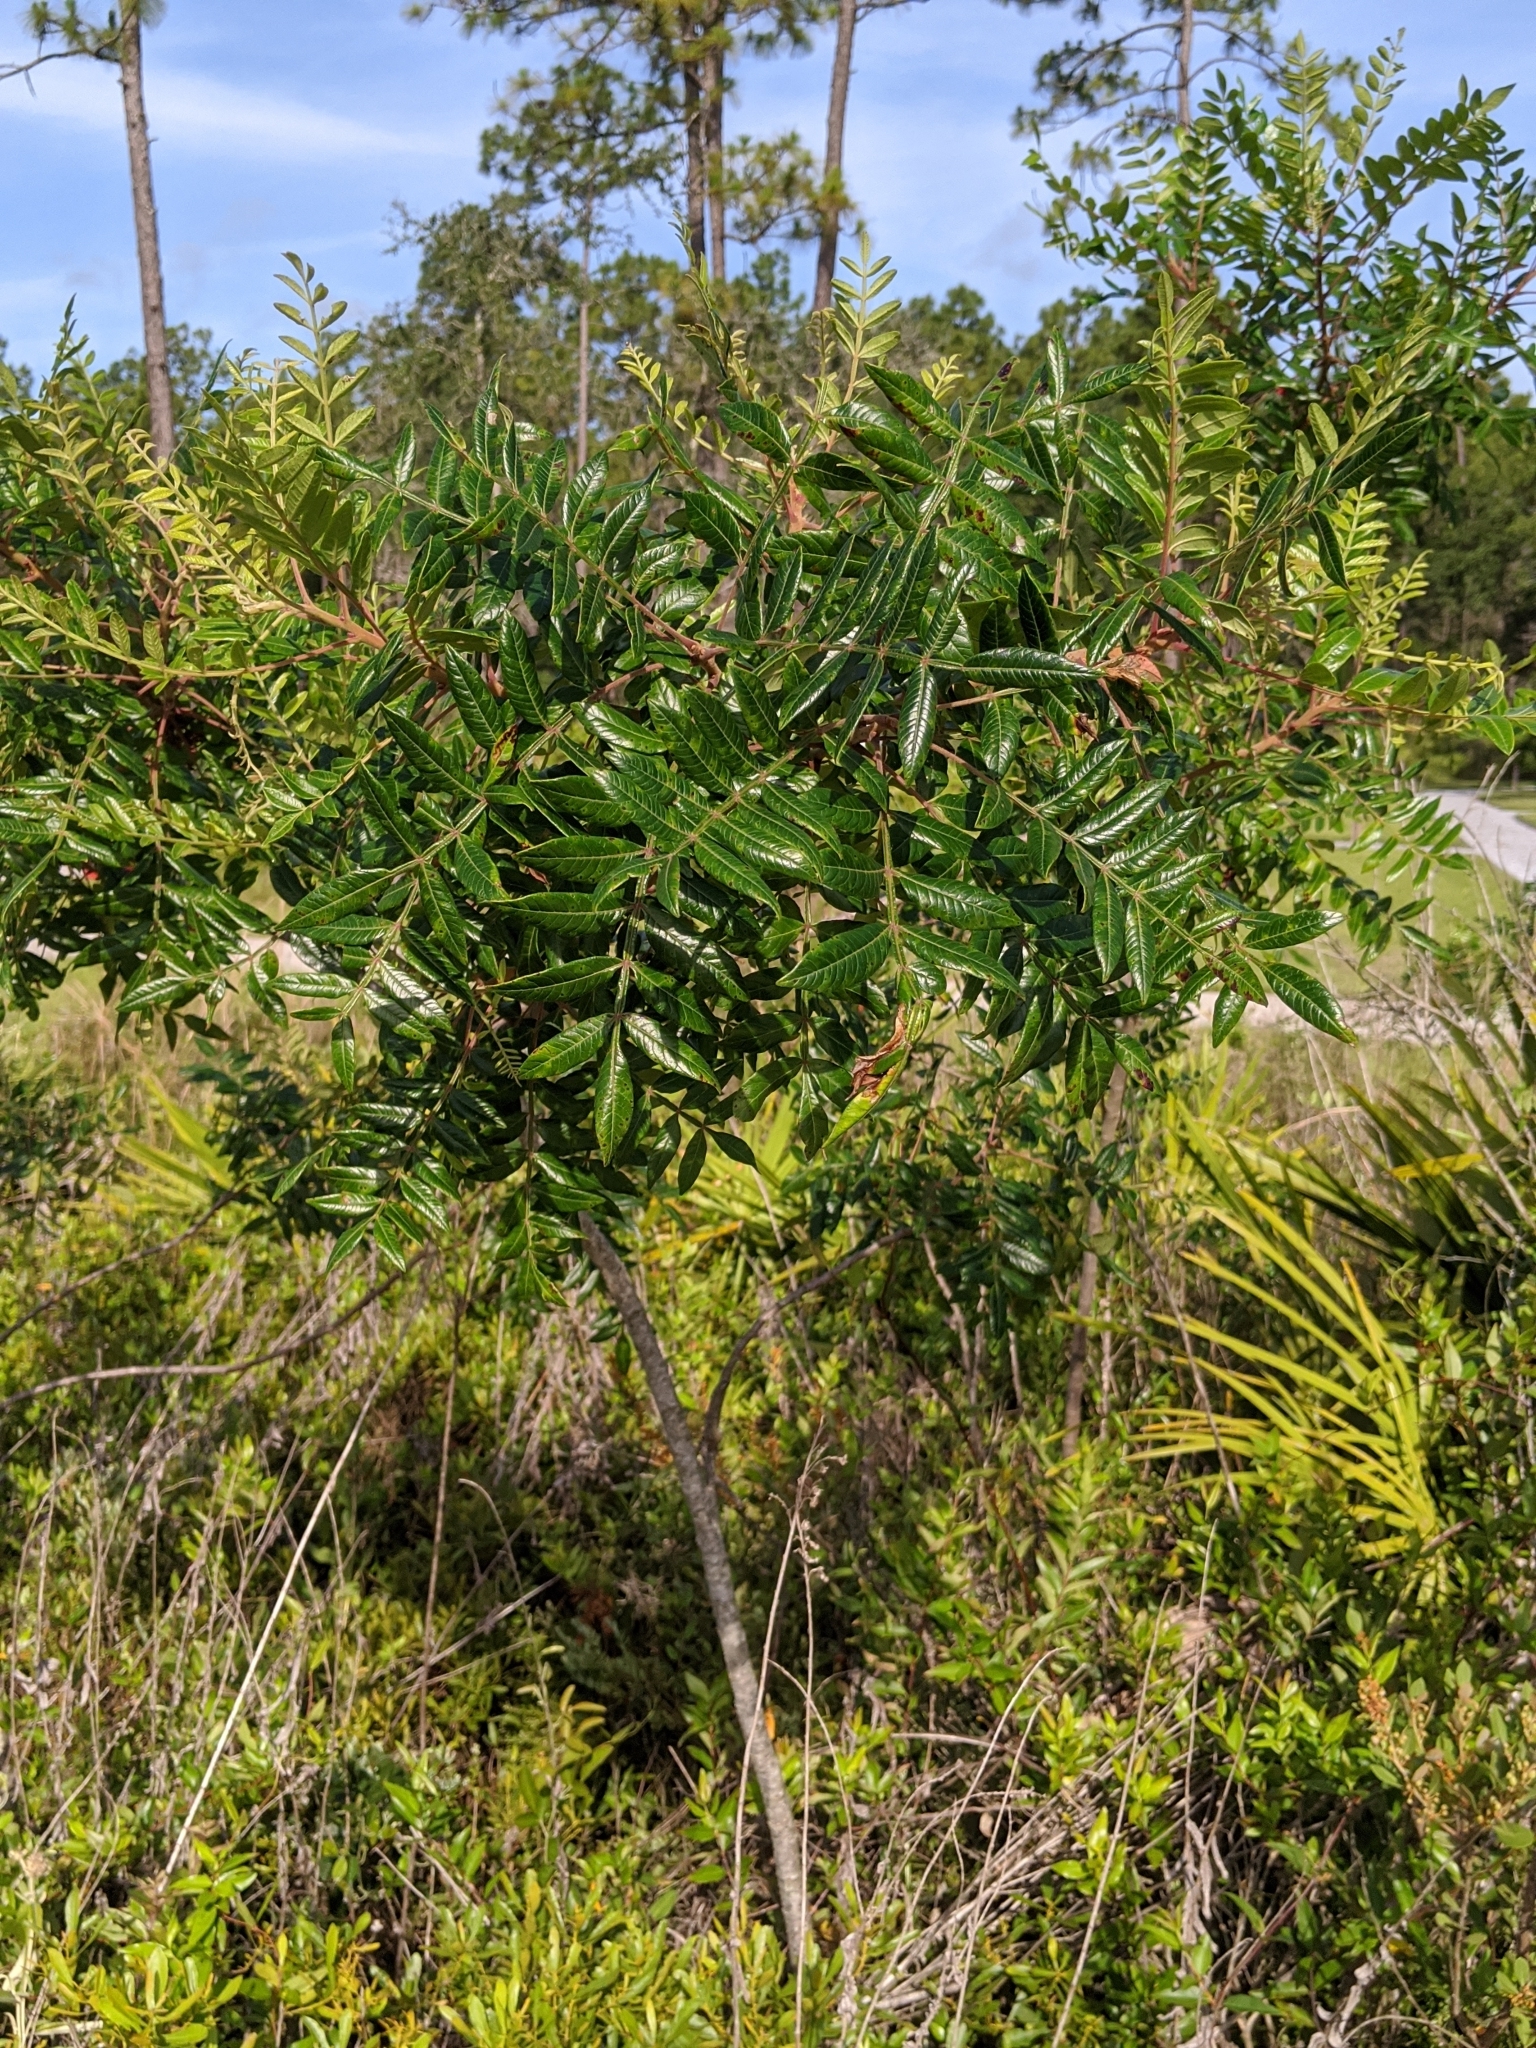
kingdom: Plantae
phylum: Tracheophyta
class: Magnoliopsida
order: Sapindales
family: Anacardiaceae
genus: Rhus
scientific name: Rhus copallina
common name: Shining sumac
